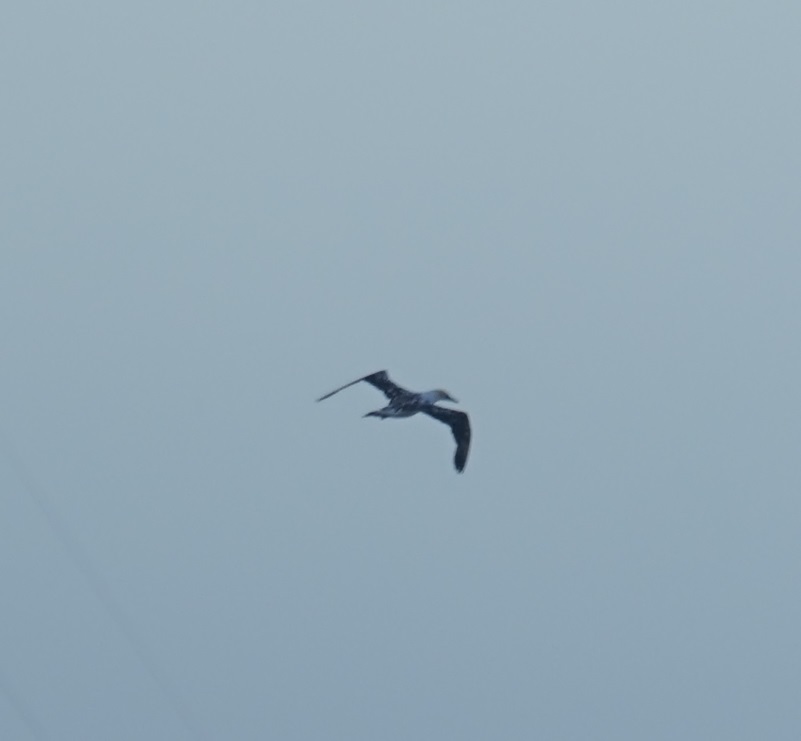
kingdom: Animalia
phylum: Chordata
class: Aves
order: Suliformes
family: Sulidae
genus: Morus
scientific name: Morus serrator
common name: Australasian gannet
